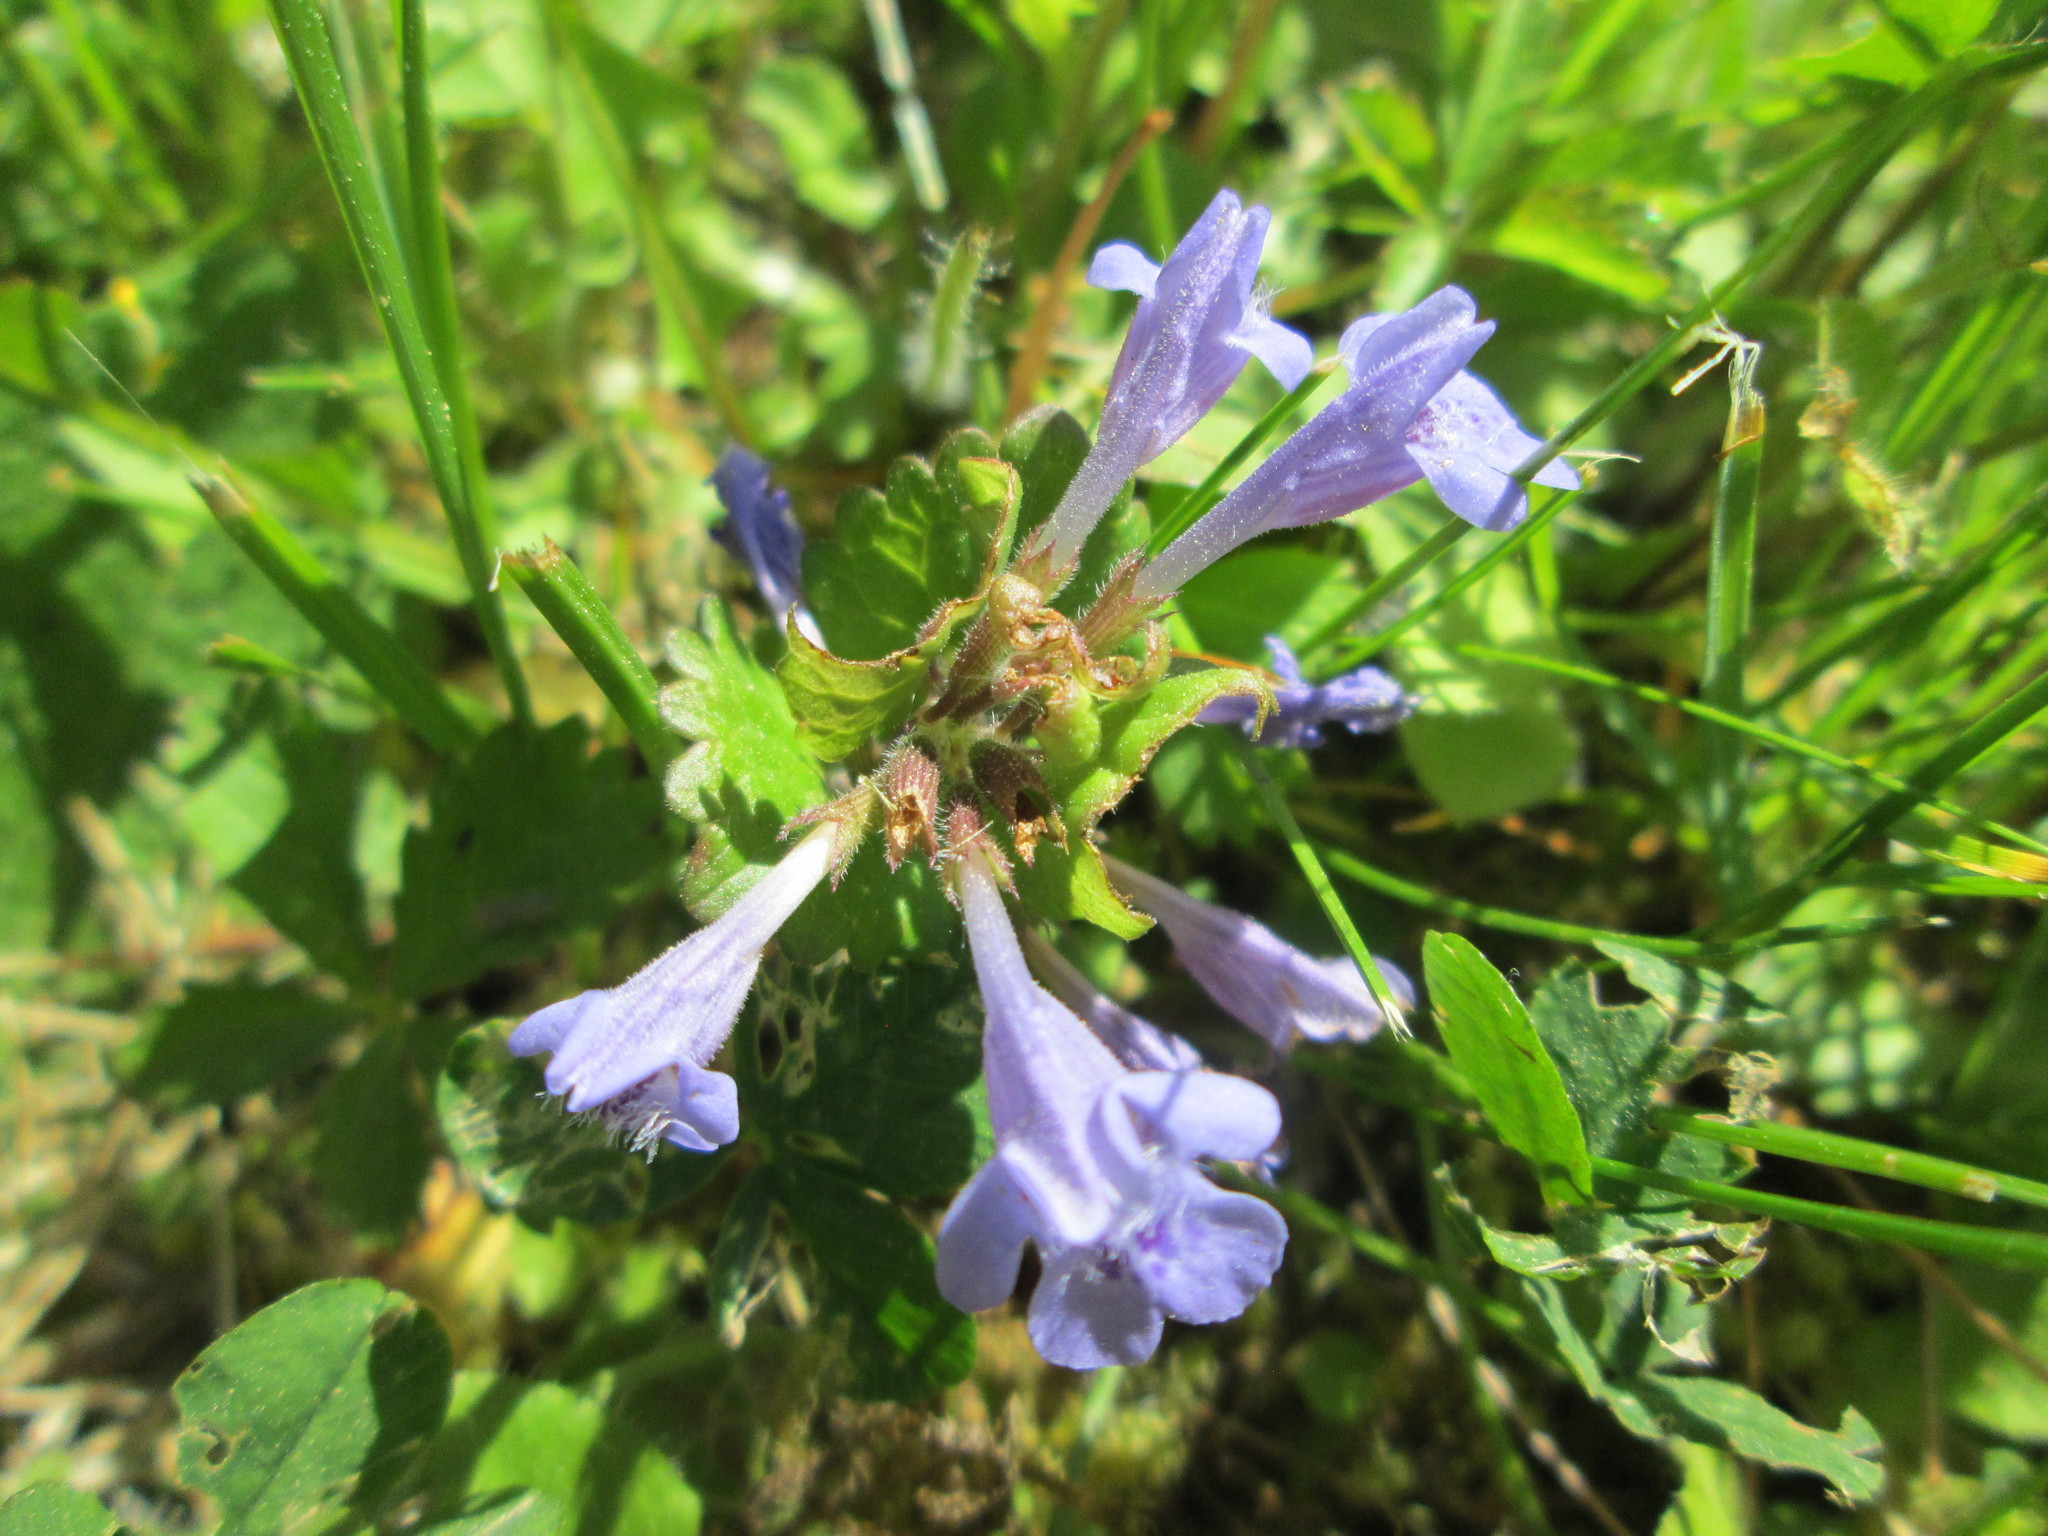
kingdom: Plantae
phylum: Tracheophyta
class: Magnoliopsida
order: Lamiales
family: Lamiaceae
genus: Glechoma
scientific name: Glechoma hederacea
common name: Ground ivy
